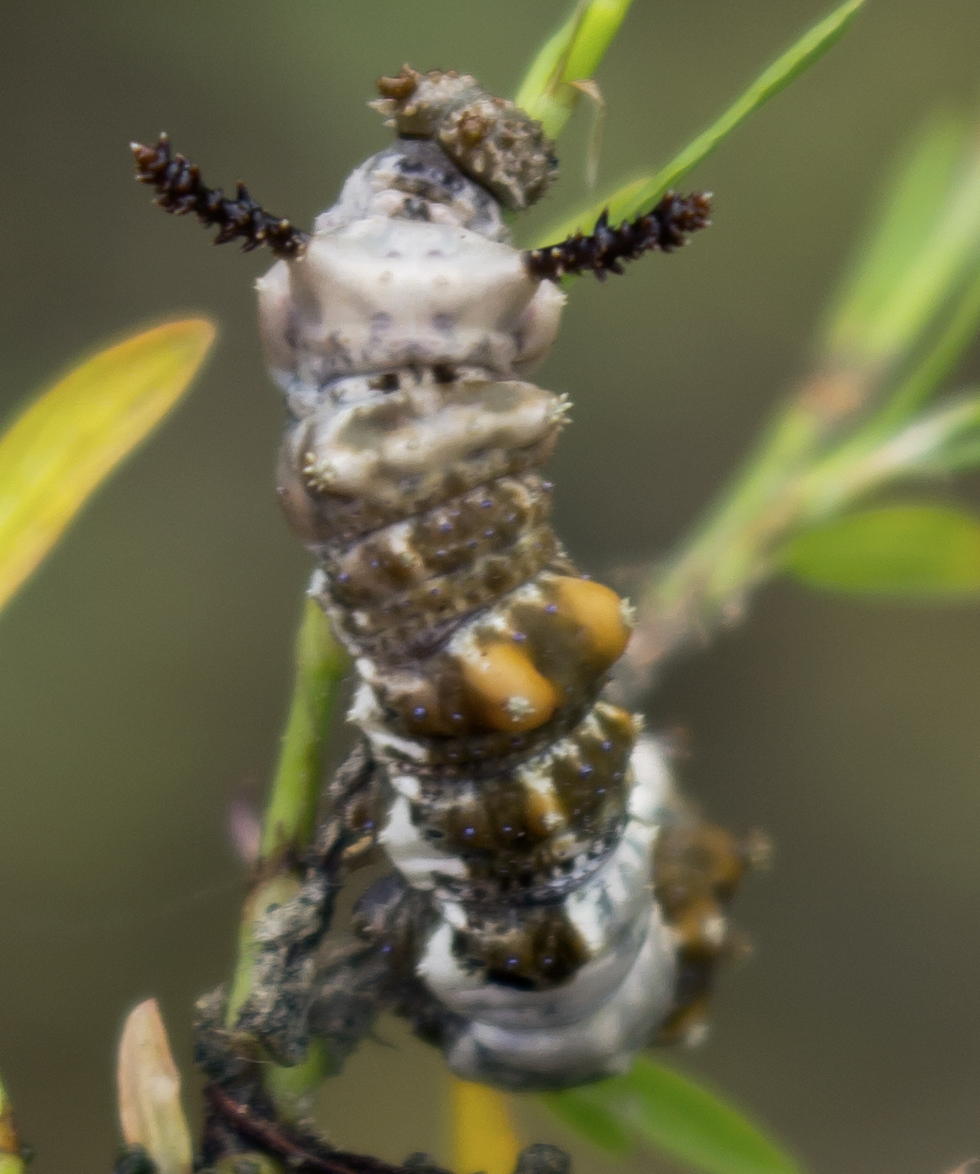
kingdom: Animalia
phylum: Arthropoda
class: Insecta
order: Lepidoptera
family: Nymphalidae
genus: Limenitis
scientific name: Limenitis archippus
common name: Viceroy
